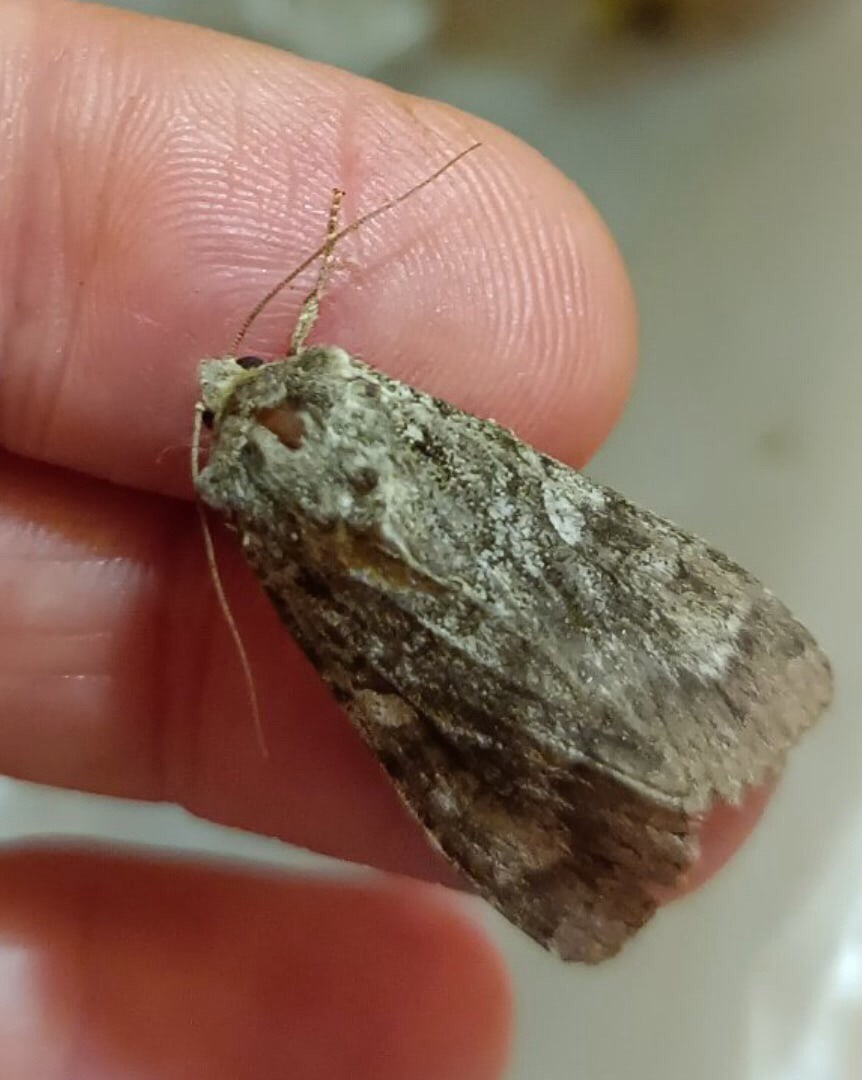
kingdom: Animalia
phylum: Arthropoda
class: Insecta
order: Lepidoptera
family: Noctuidae
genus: Eurois
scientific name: Eurois occulta
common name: Great brocade
